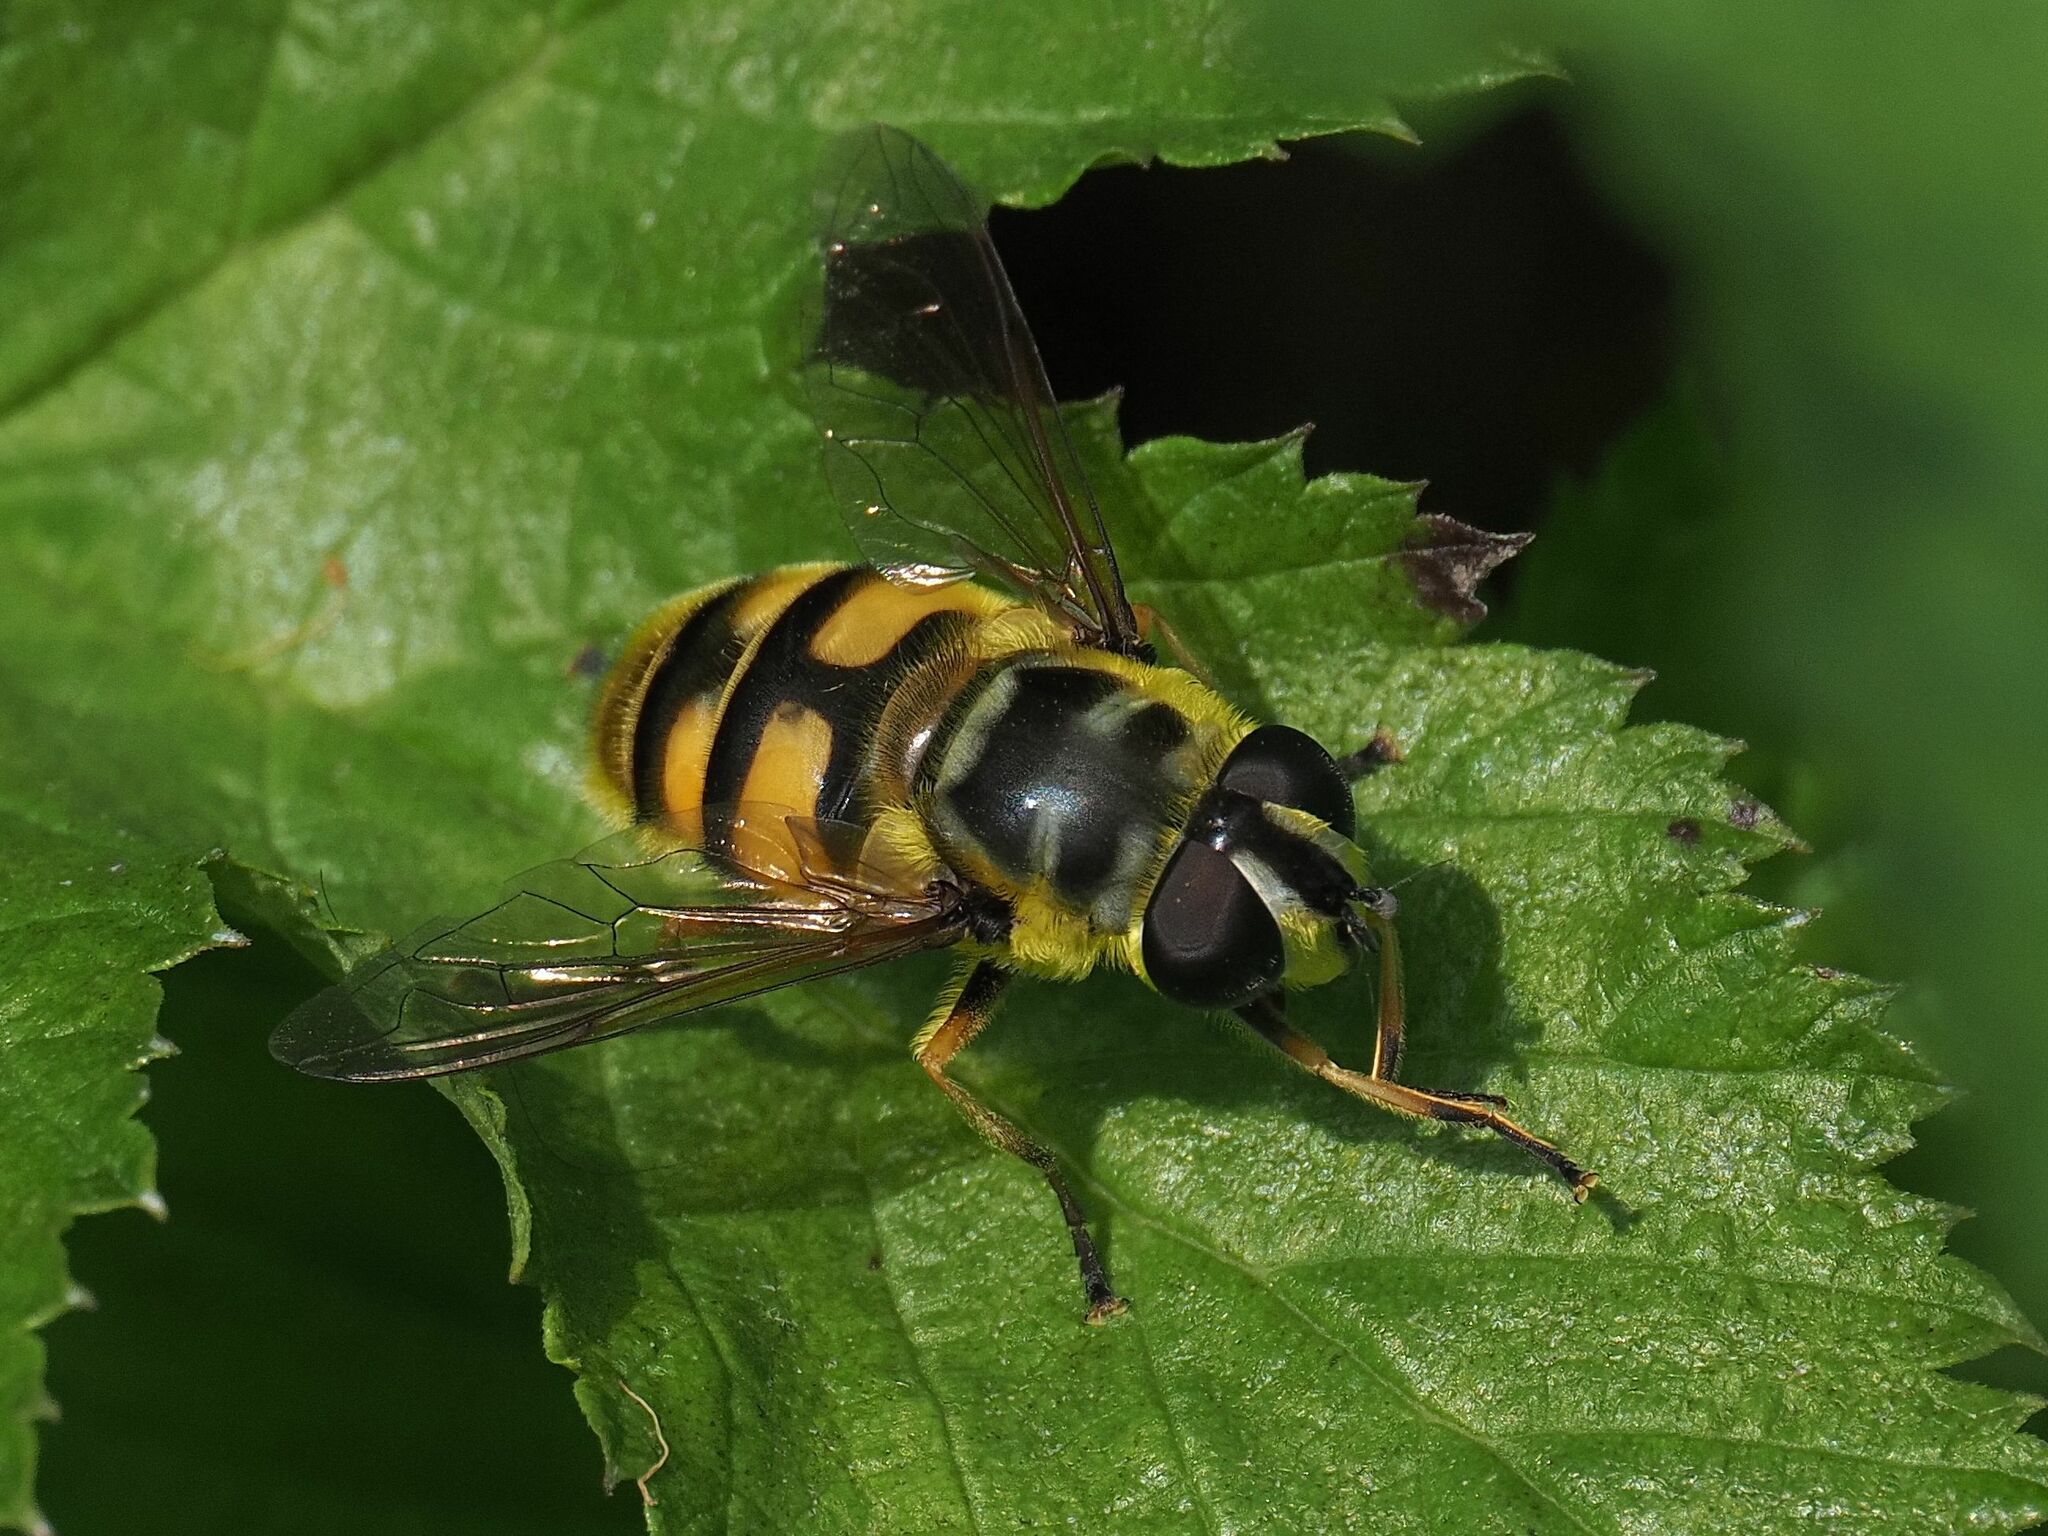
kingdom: Animalia
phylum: Arthropoda
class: Insecta
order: Diptera
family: Syrphidae
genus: Myathropa
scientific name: Myathropa florea
